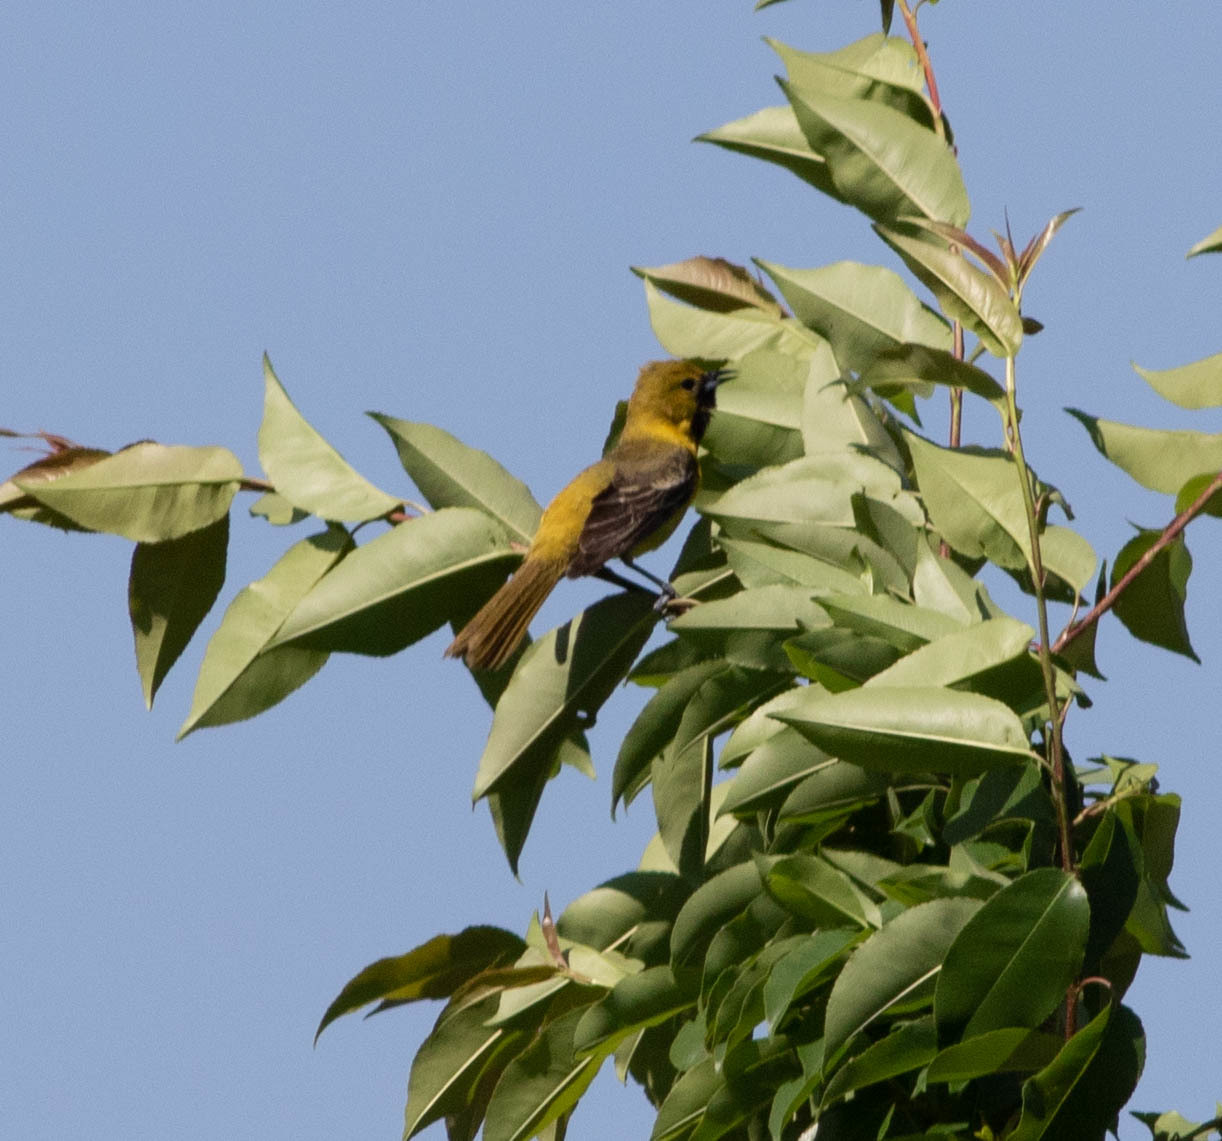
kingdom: Animalia
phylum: Chordata
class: Aves
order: Passeriformes
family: Icteridae
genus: Icterus
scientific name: Icterus spurius
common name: Orchard oriole
